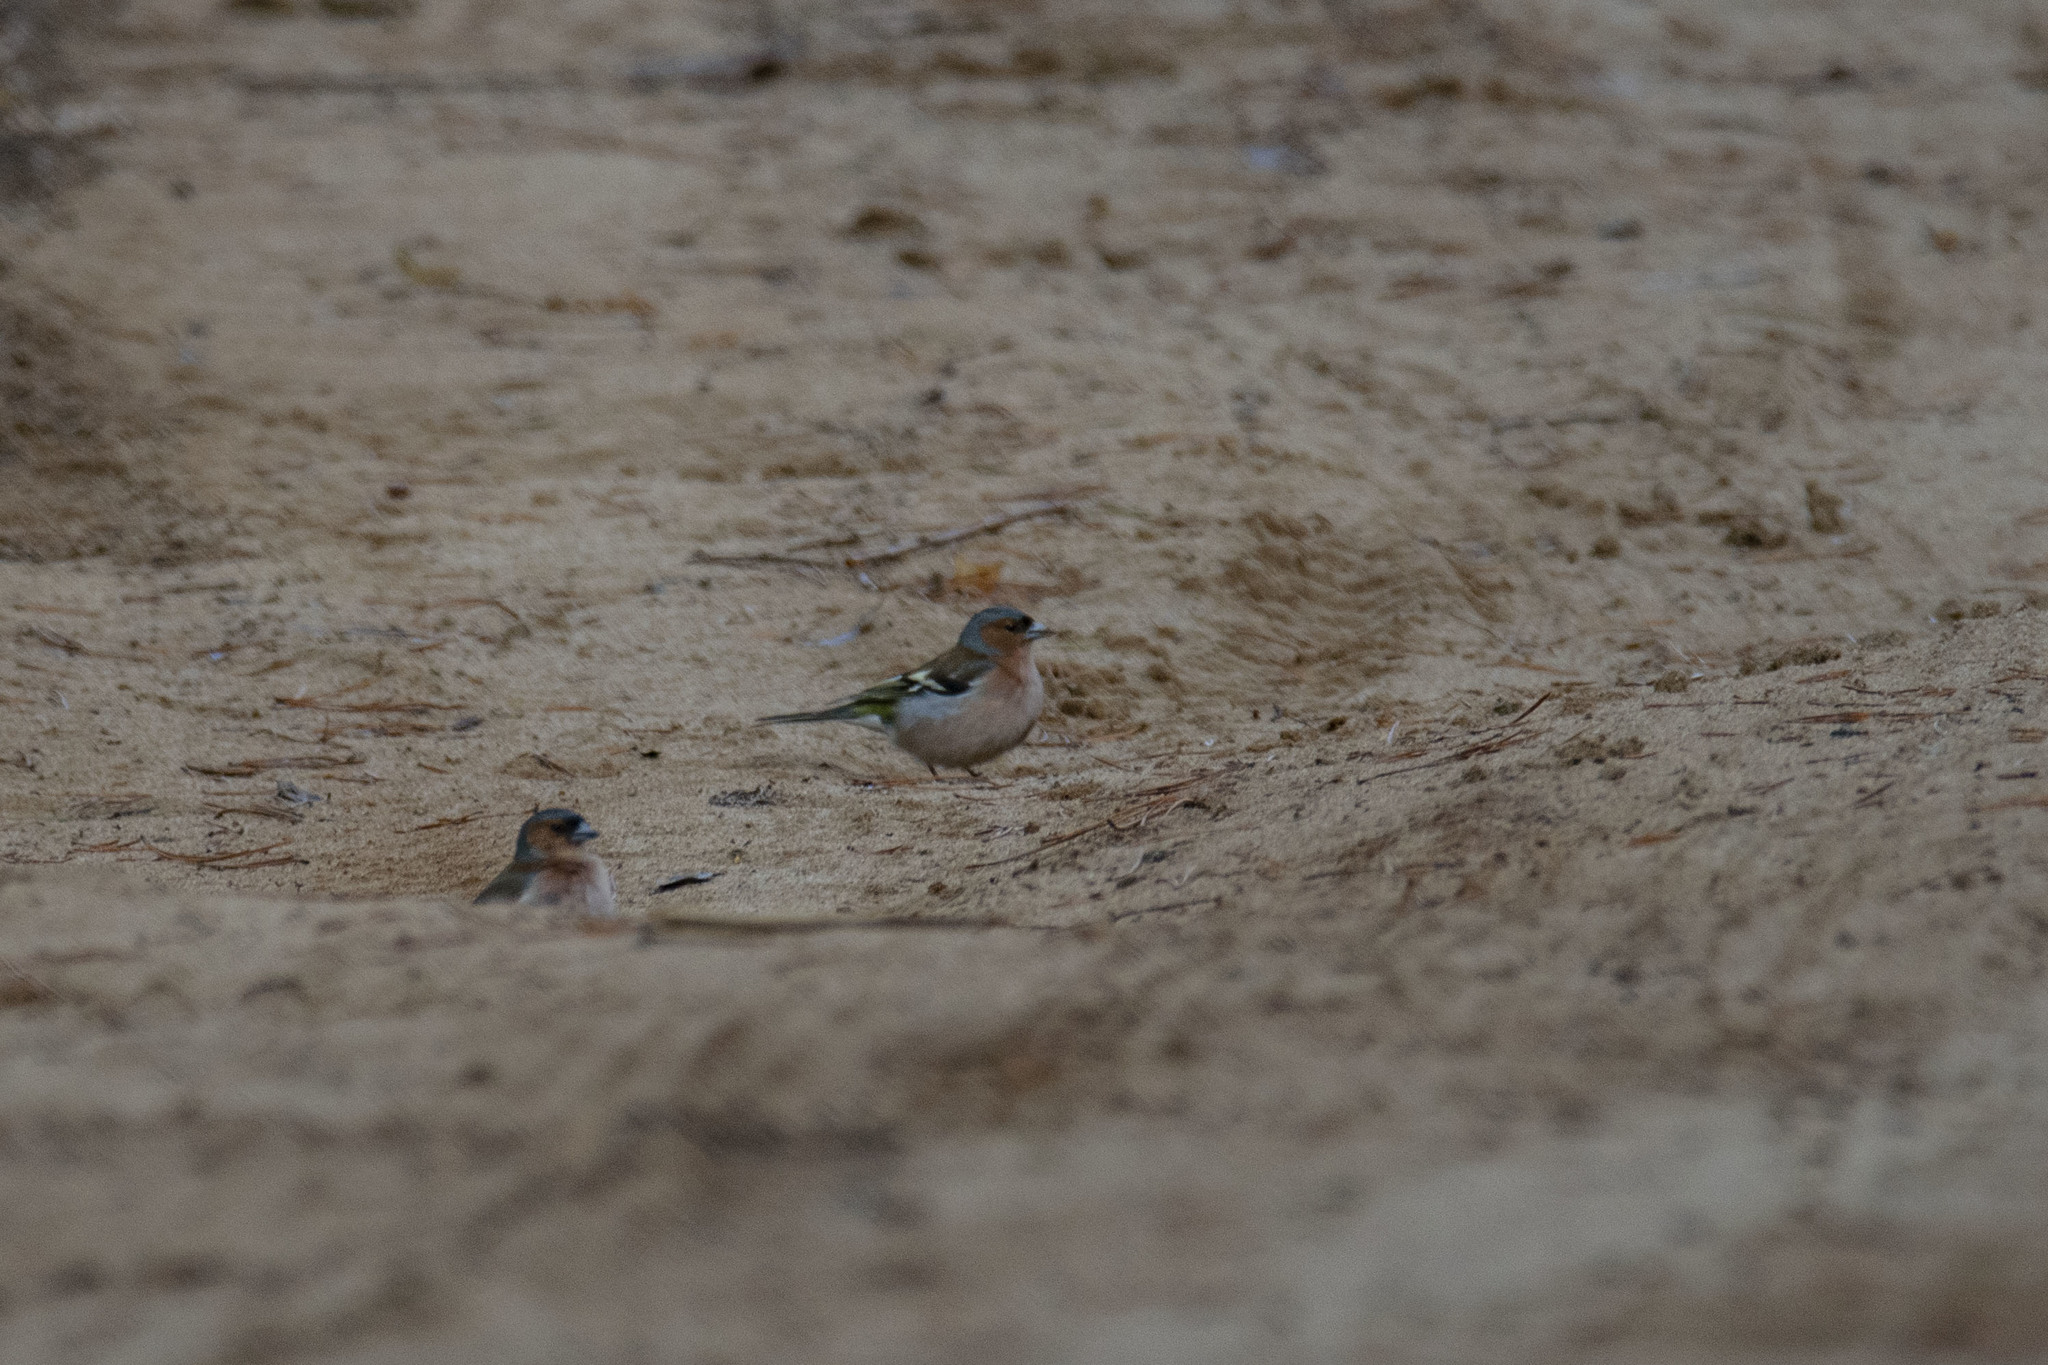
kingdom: Animalia
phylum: Chordata
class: Aves
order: Passeriformes
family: Fringillidae
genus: Fringilla
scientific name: Fringilla coelebs
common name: Common chaffinch
